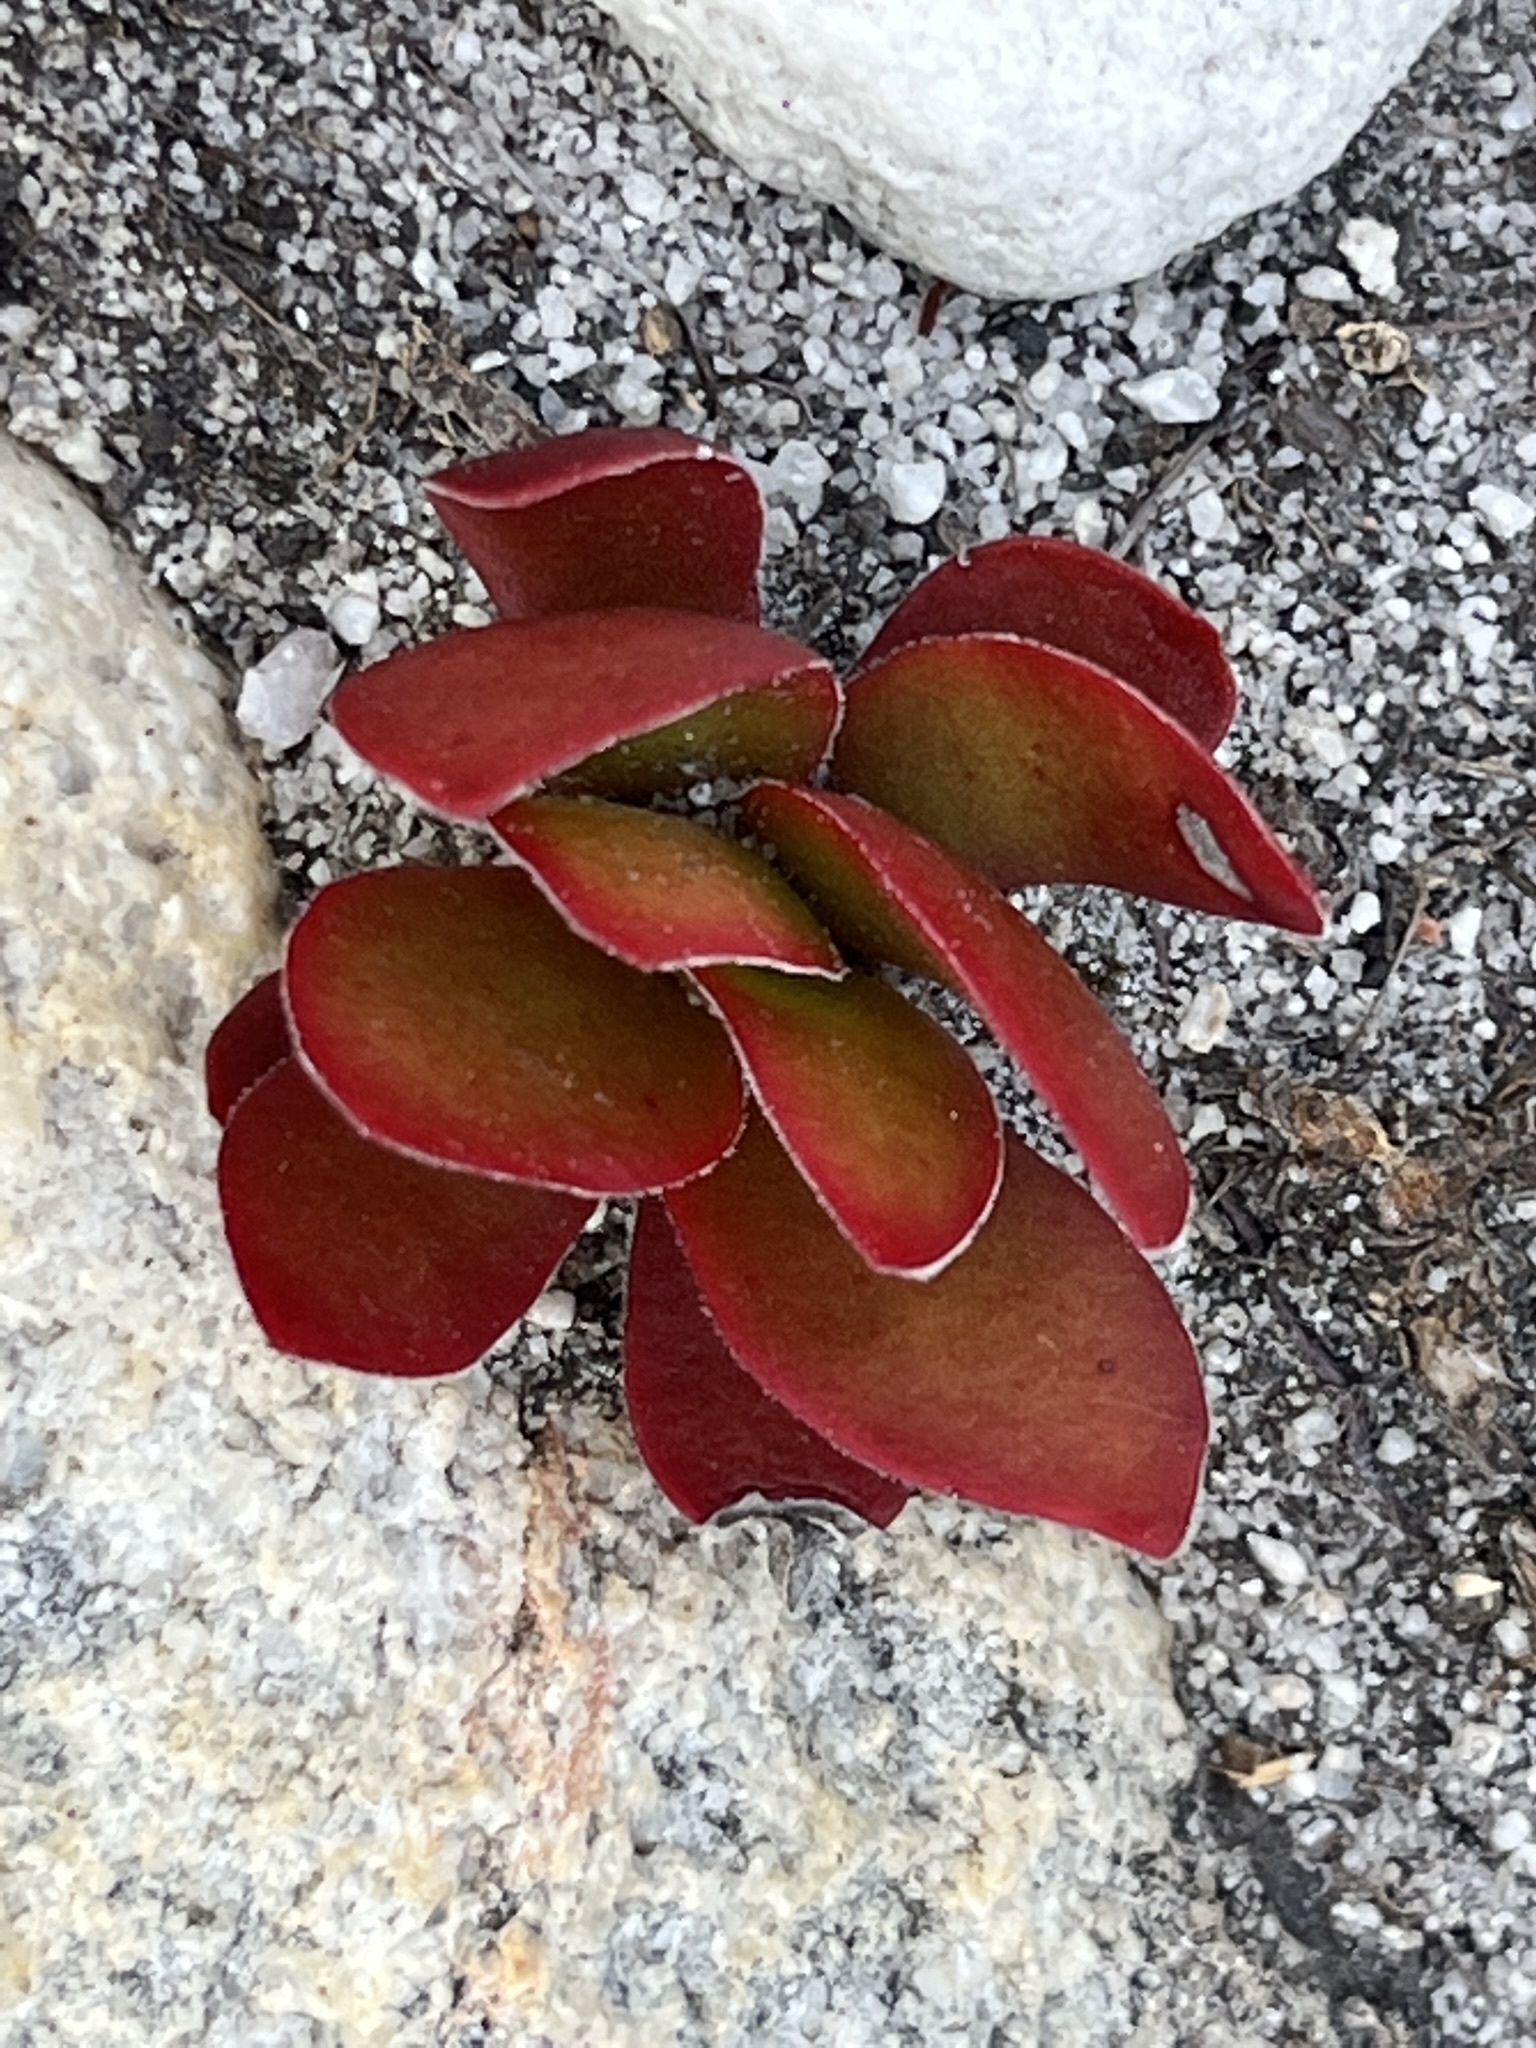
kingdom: Plantae
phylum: Tracheophyta
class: Magnoliopsida
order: Saxifragales
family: Crassulaceae
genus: Crassula
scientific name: Crassula nudicaulis
